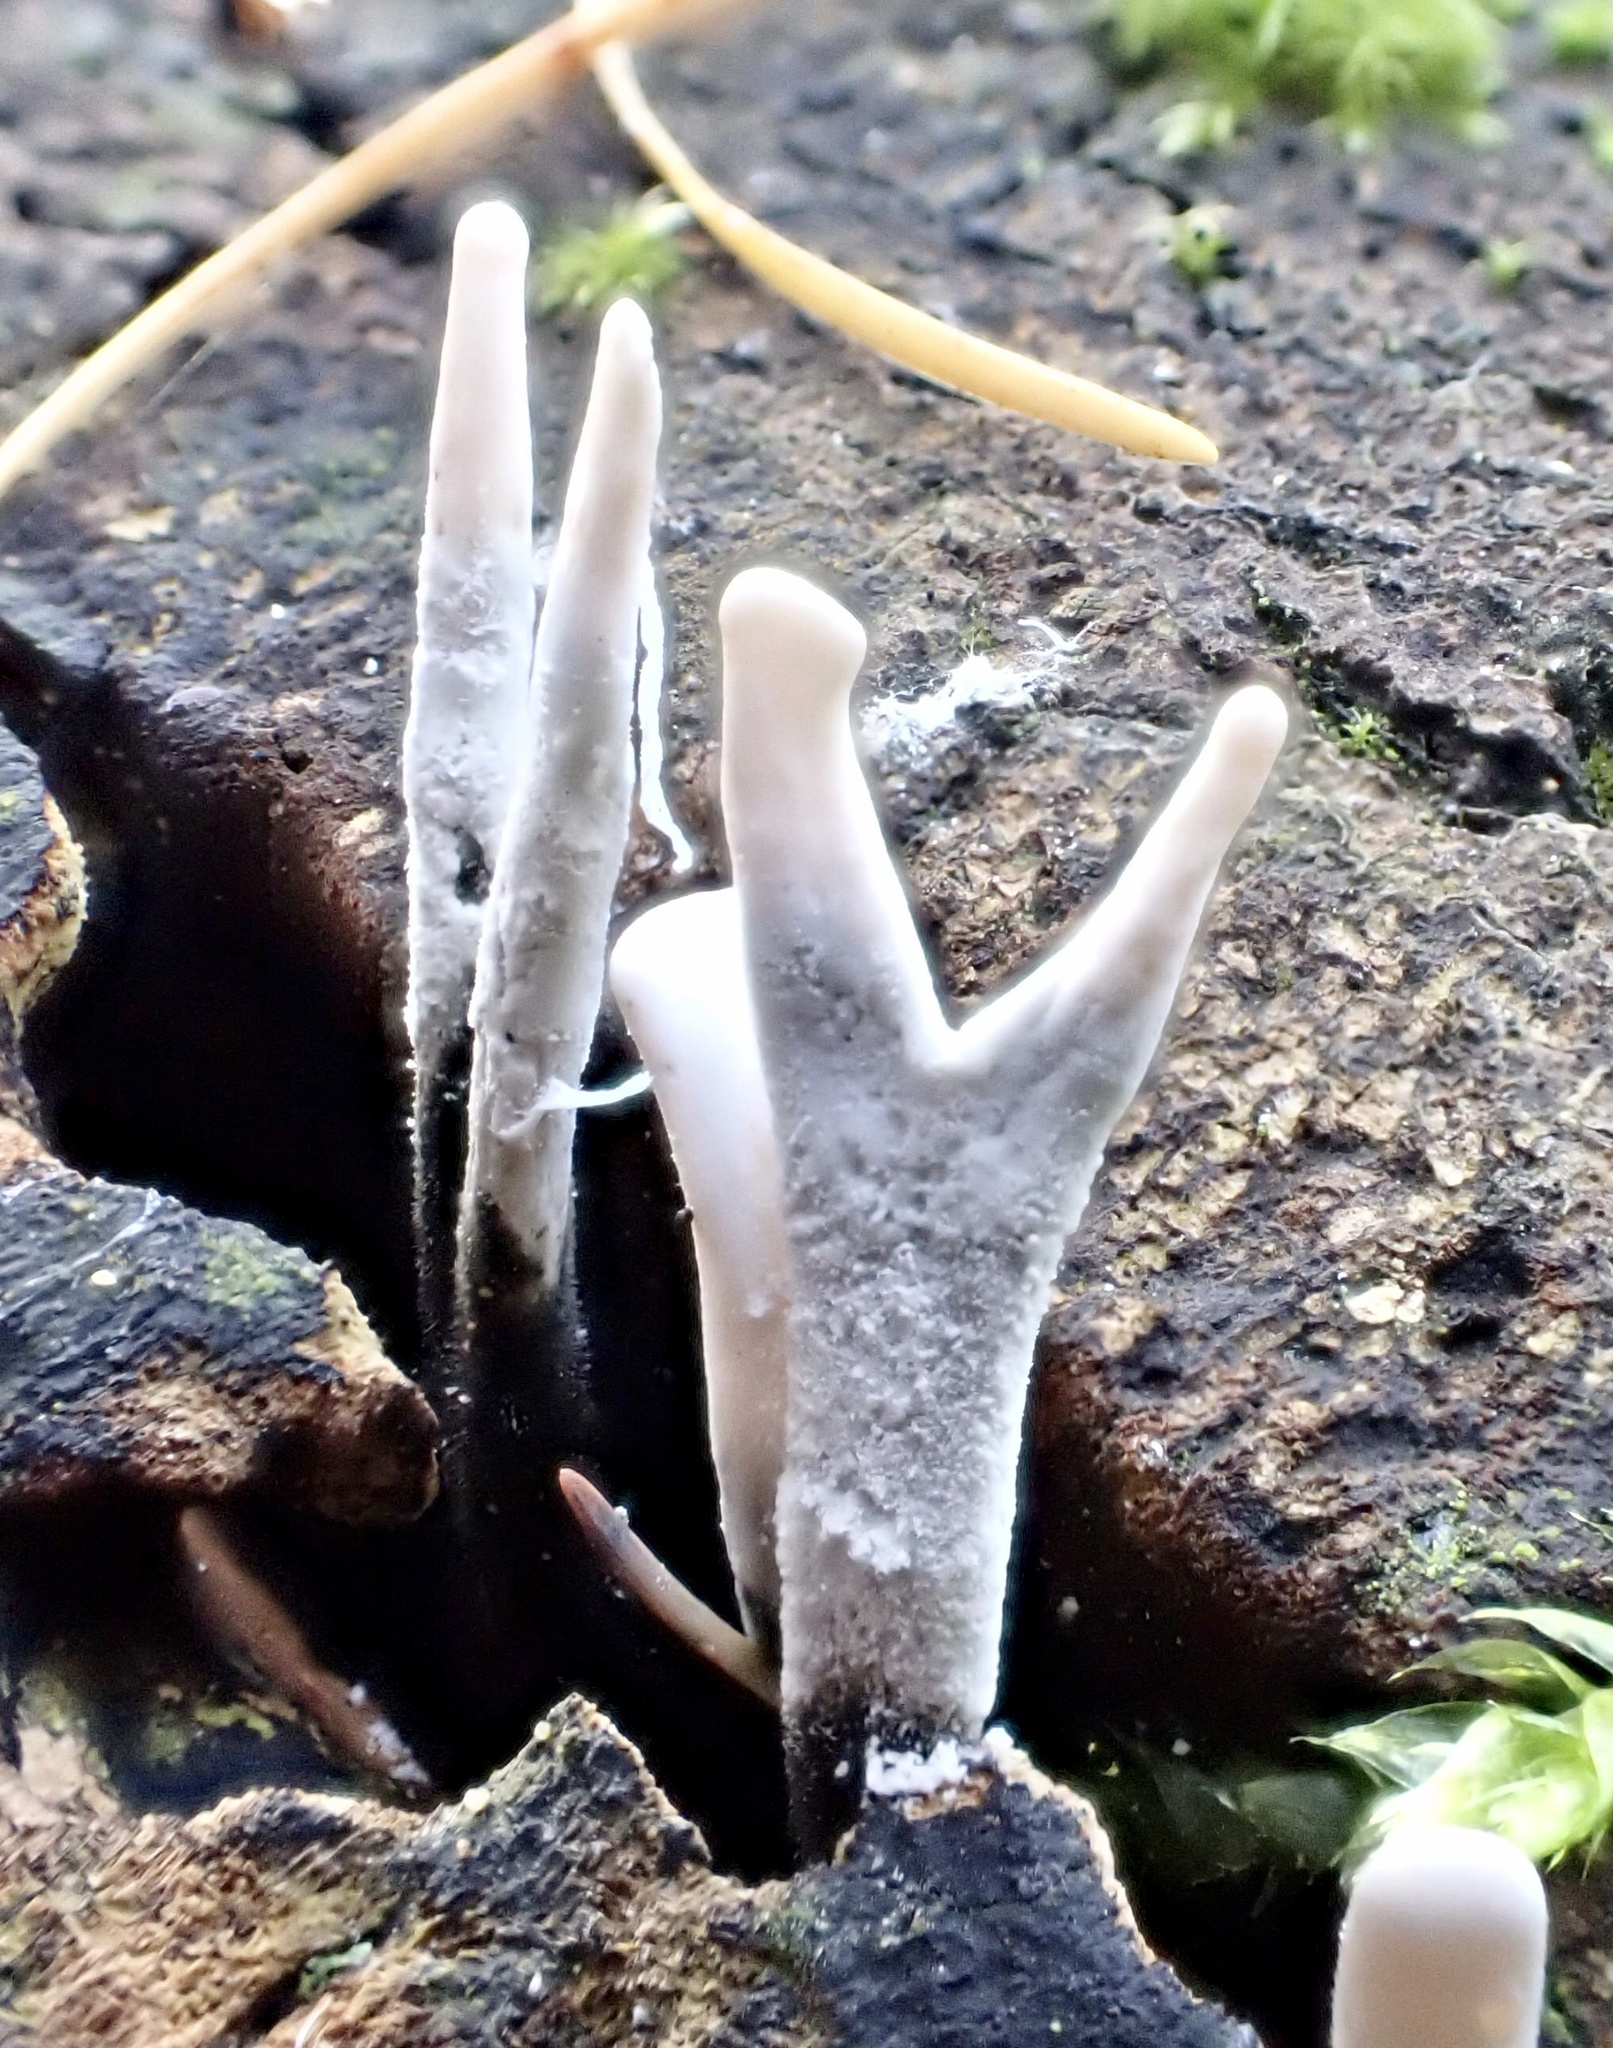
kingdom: Fungi
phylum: Ascomycota
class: Sordariomycetes
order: Xylariales
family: Xylariaceae
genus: Xylaria
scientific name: Xylaria hypoxylon
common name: Candle-snuff fungus
